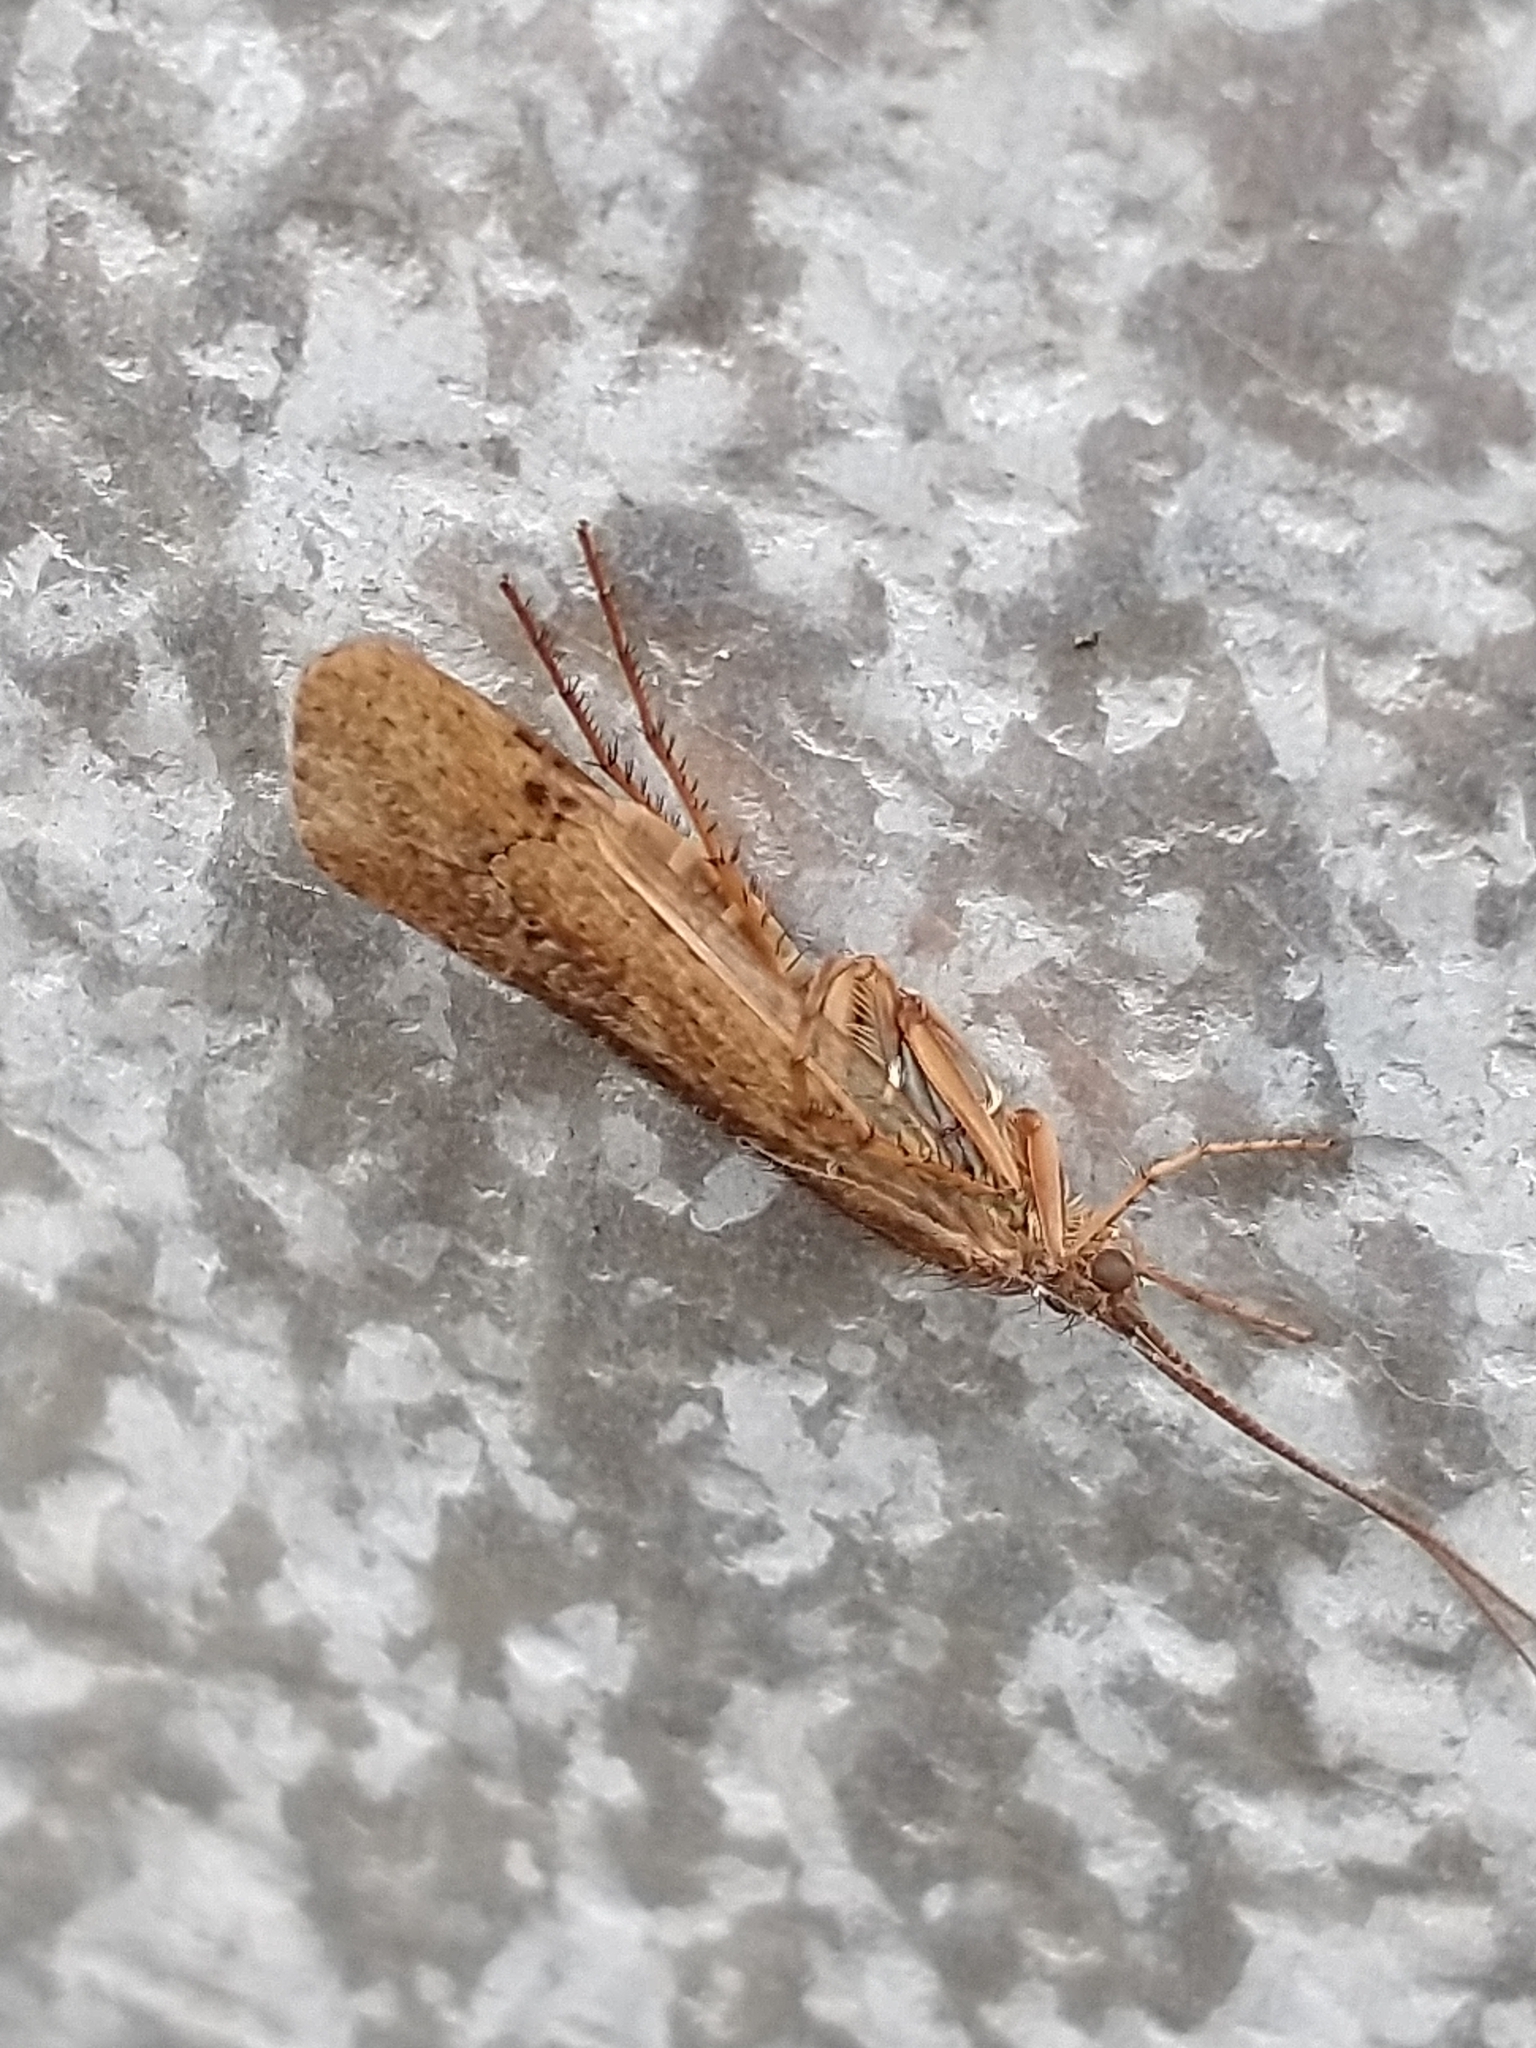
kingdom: Animalia
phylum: Arthropoda
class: Insecta
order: Trichoptera
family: Limnephilidae
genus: Limnephilus
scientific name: Limnephilus affinis
